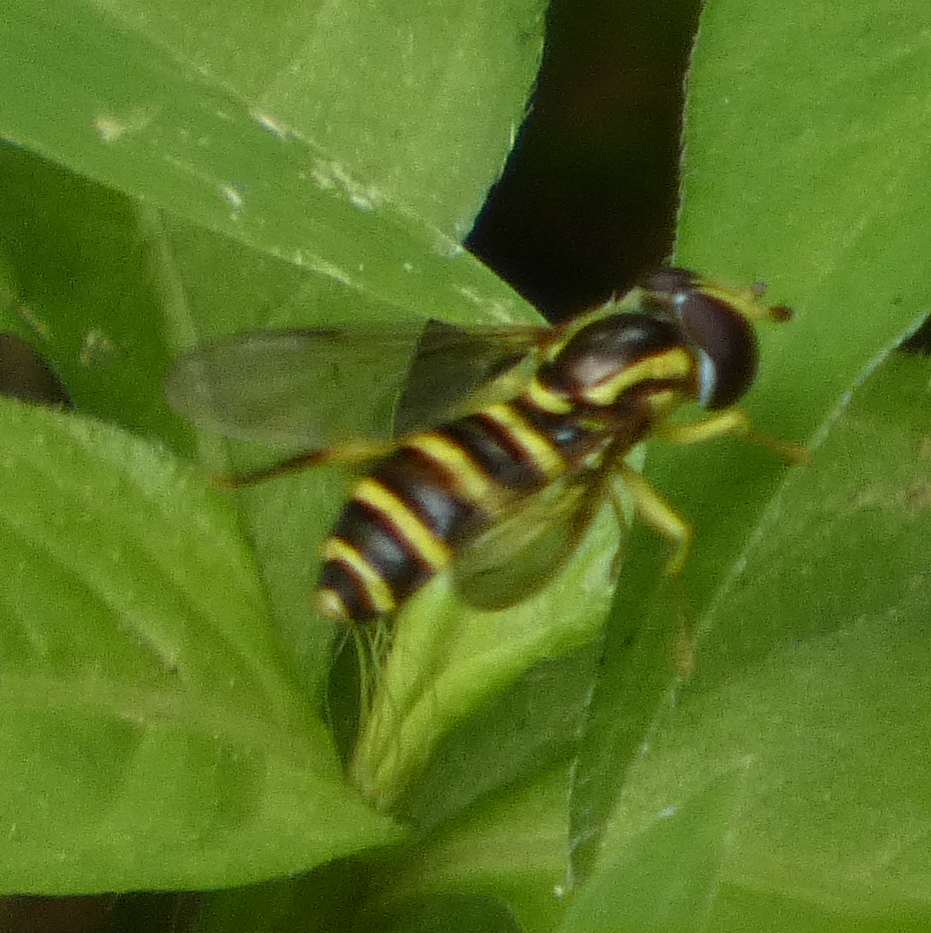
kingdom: Animalia
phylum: Arthropoda
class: Insecta
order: Diptera
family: Syrphidae
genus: Philhelius
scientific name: Philhelius flavipes
